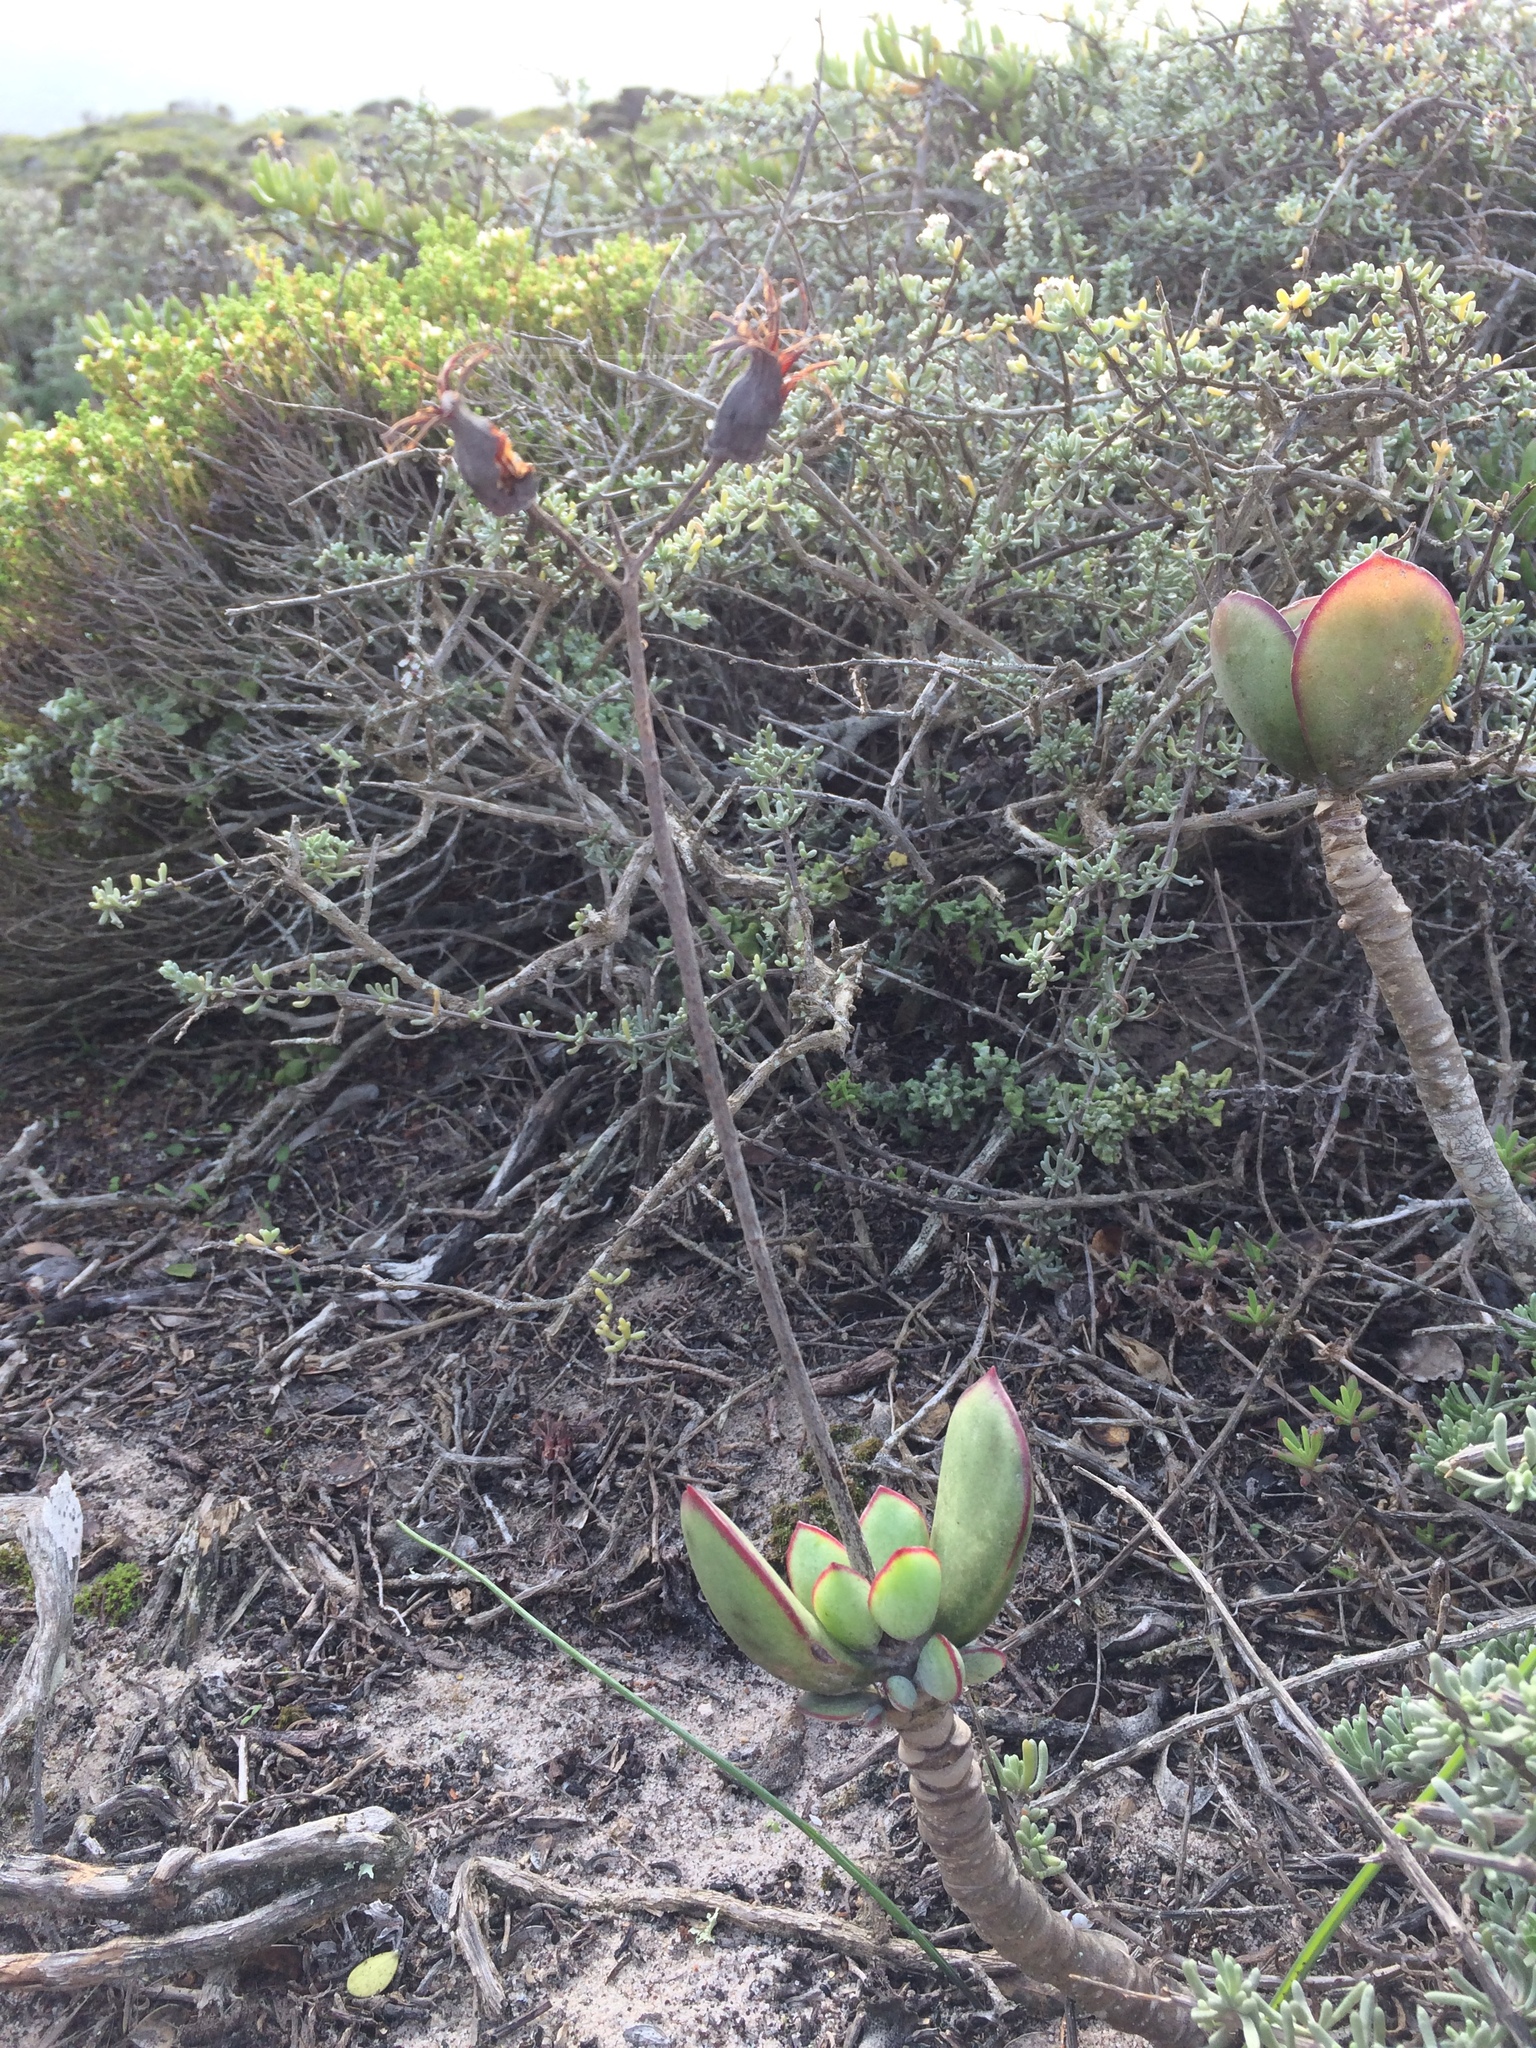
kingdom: Plantae
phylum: Tracheophyta
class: Magnoliopsida
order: Saxifragales
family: Crassulaceae
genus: Cotyledon
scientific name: Cotyledon orbiculata
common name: Pig's ear
